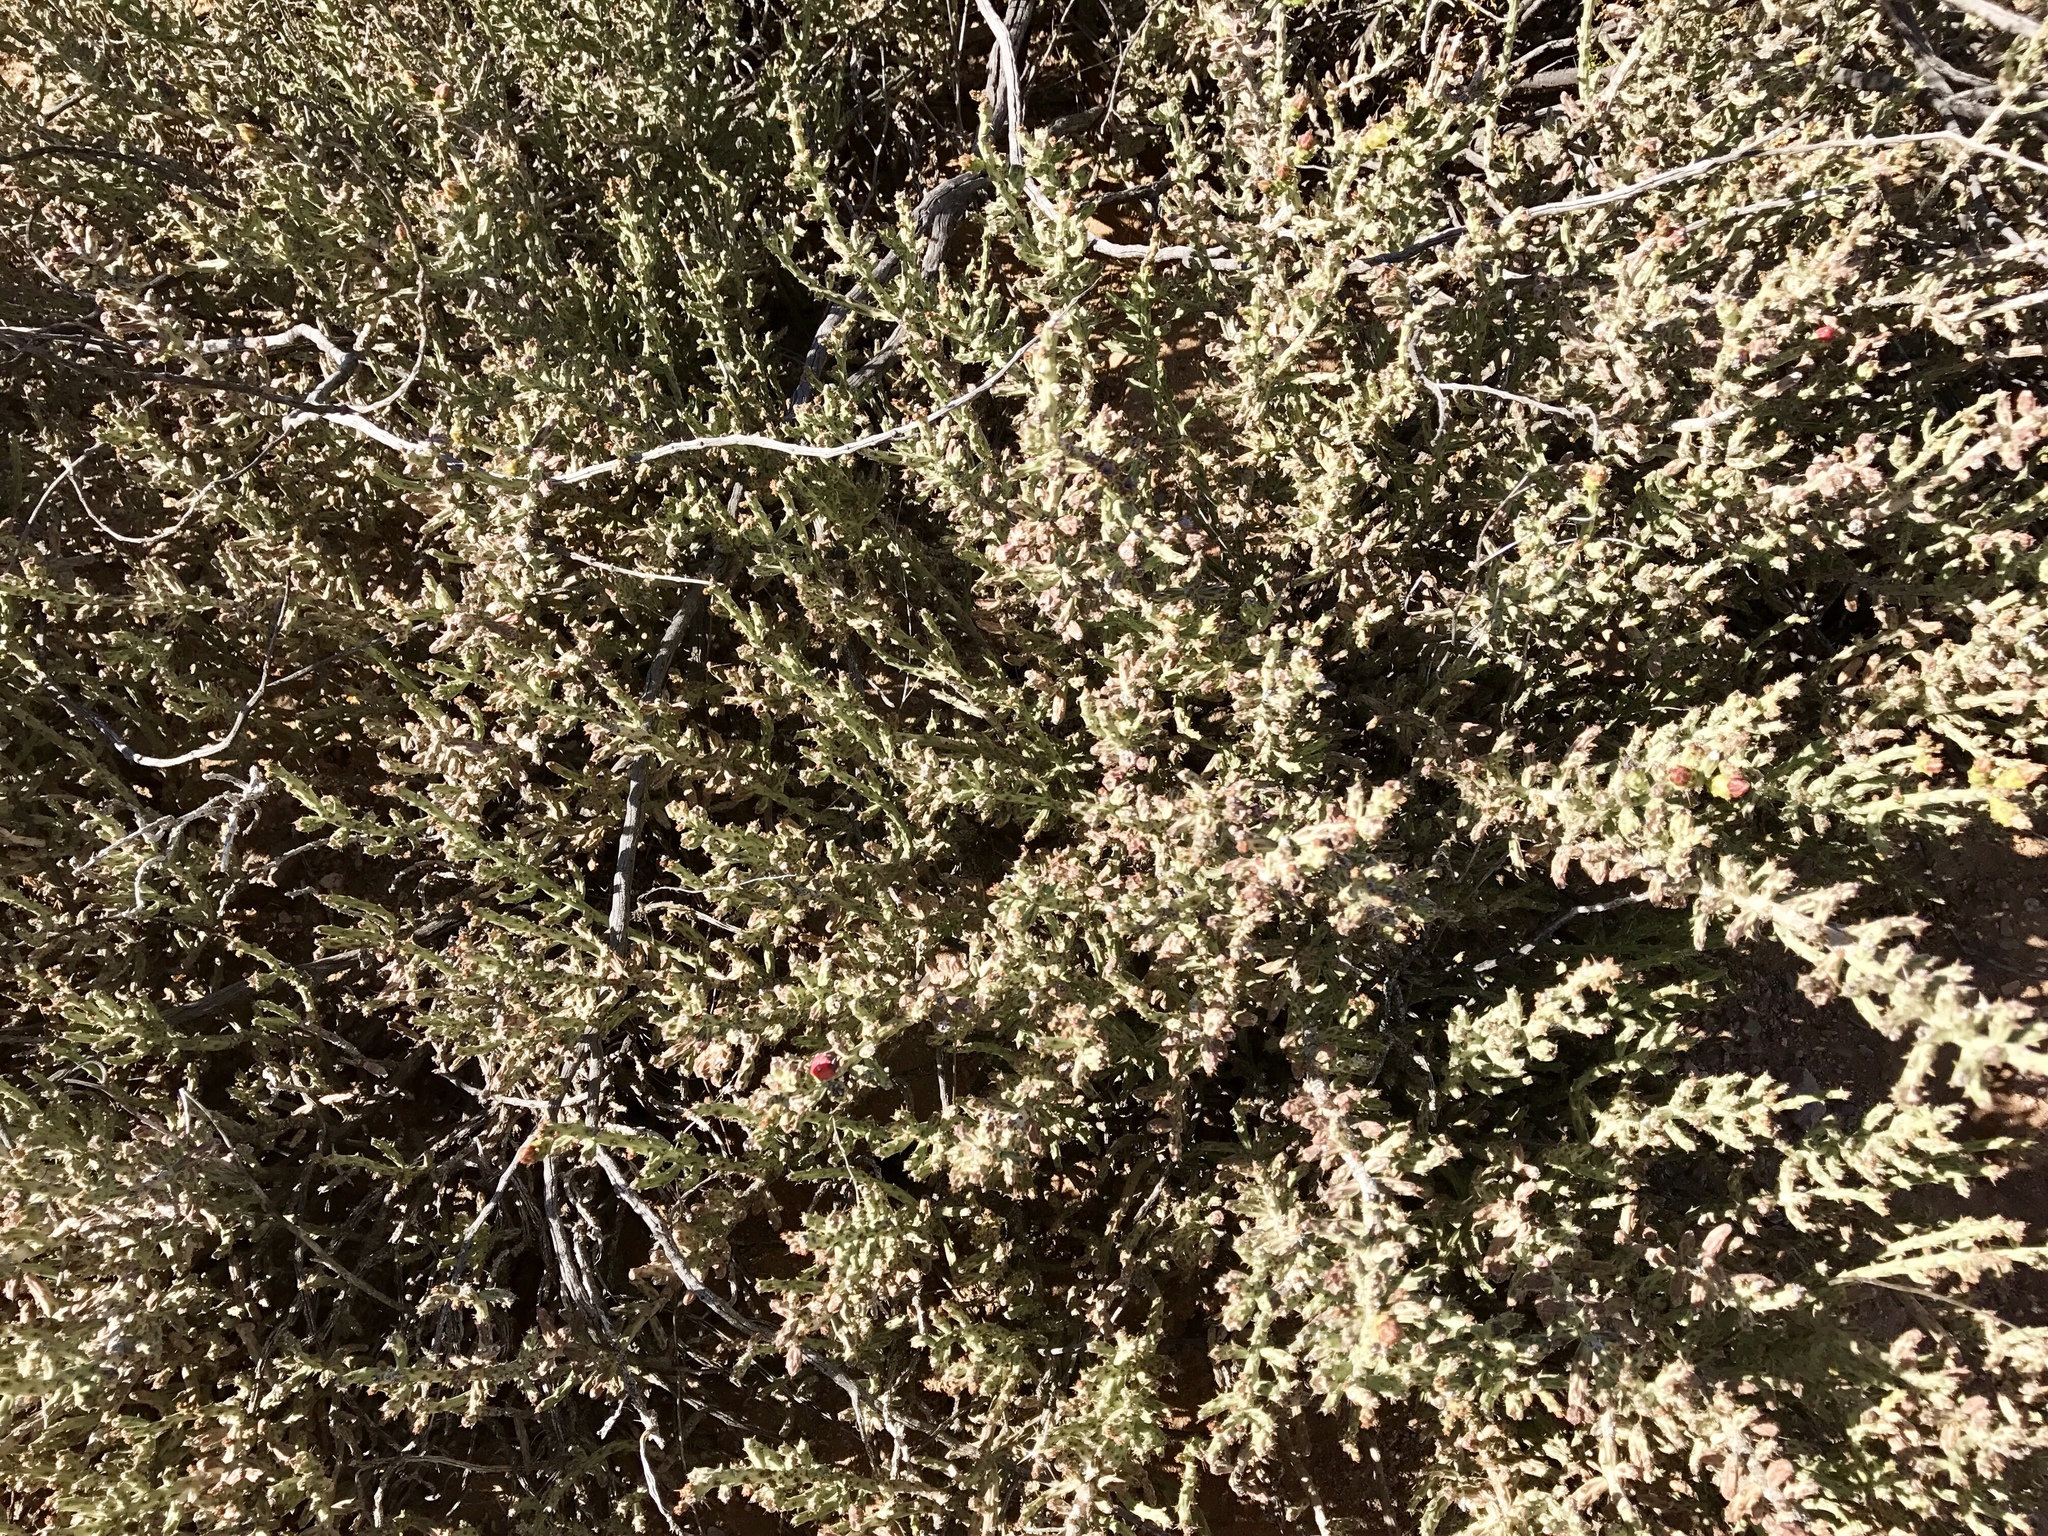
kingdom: Plantae
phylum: Tracheophyta
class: Magnoliopsida
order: Caryophyllales
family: Cactaceae
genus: Cylindropuntia
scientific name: Cylindropuntia leptocaulis
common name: Christmas cactus
